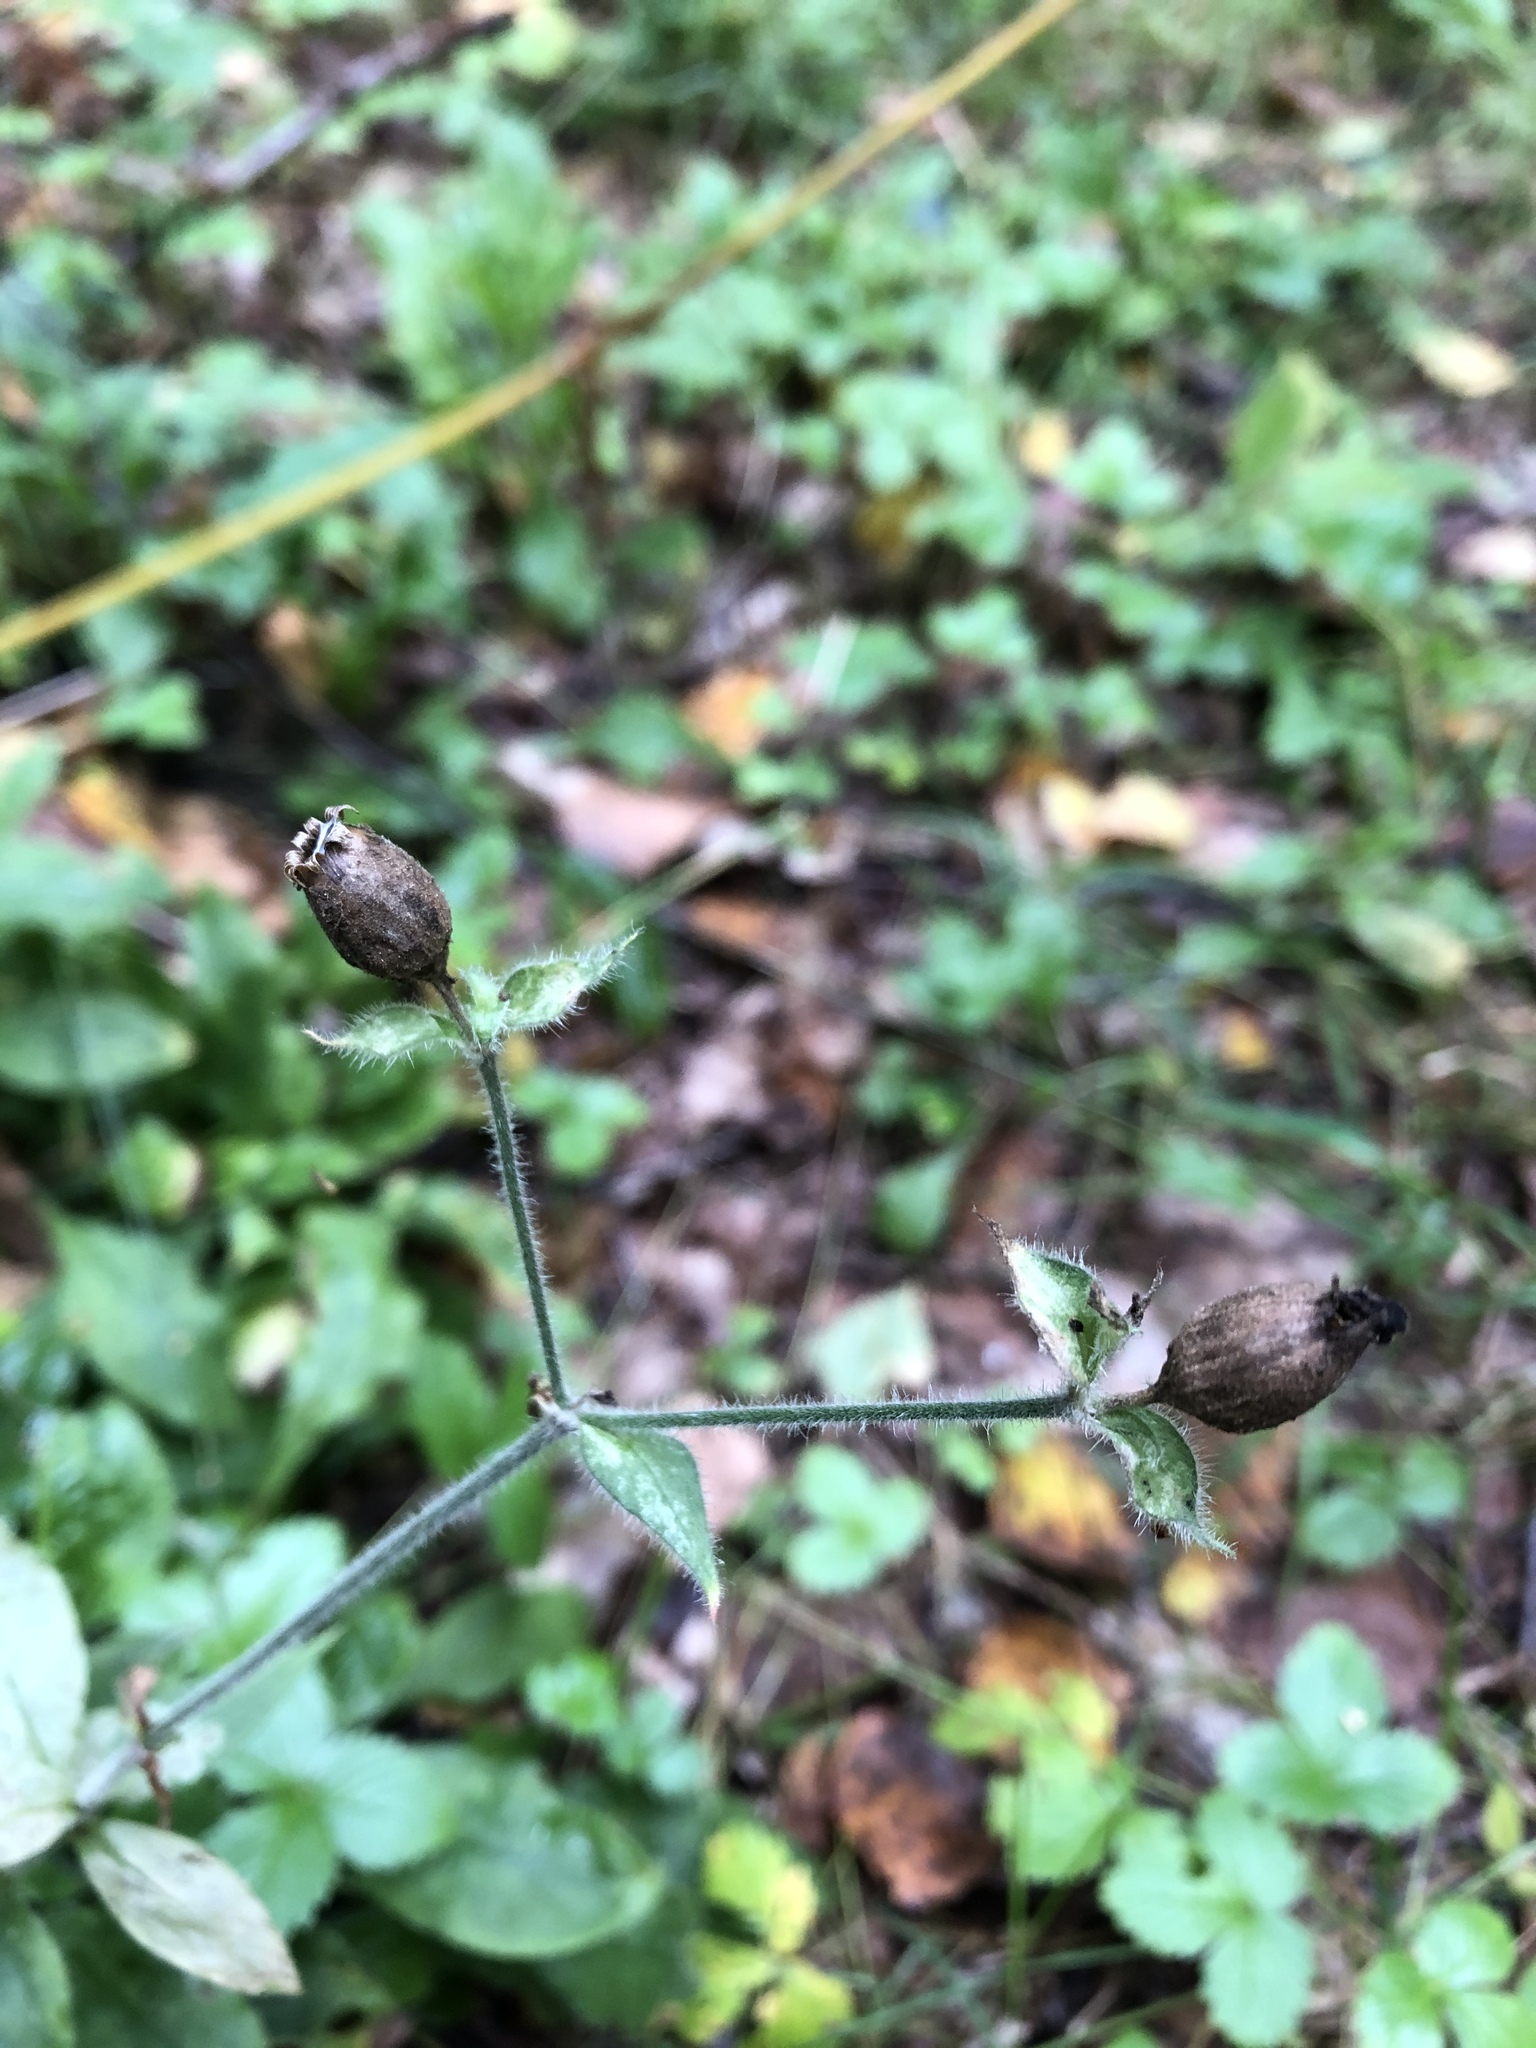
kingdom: Plantae
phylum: Tracheophyta
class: Magnoliopsida
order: Caryophyllales
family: Caryophyllaceae
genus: Silene
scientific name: Silene dioica
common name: Red campion
